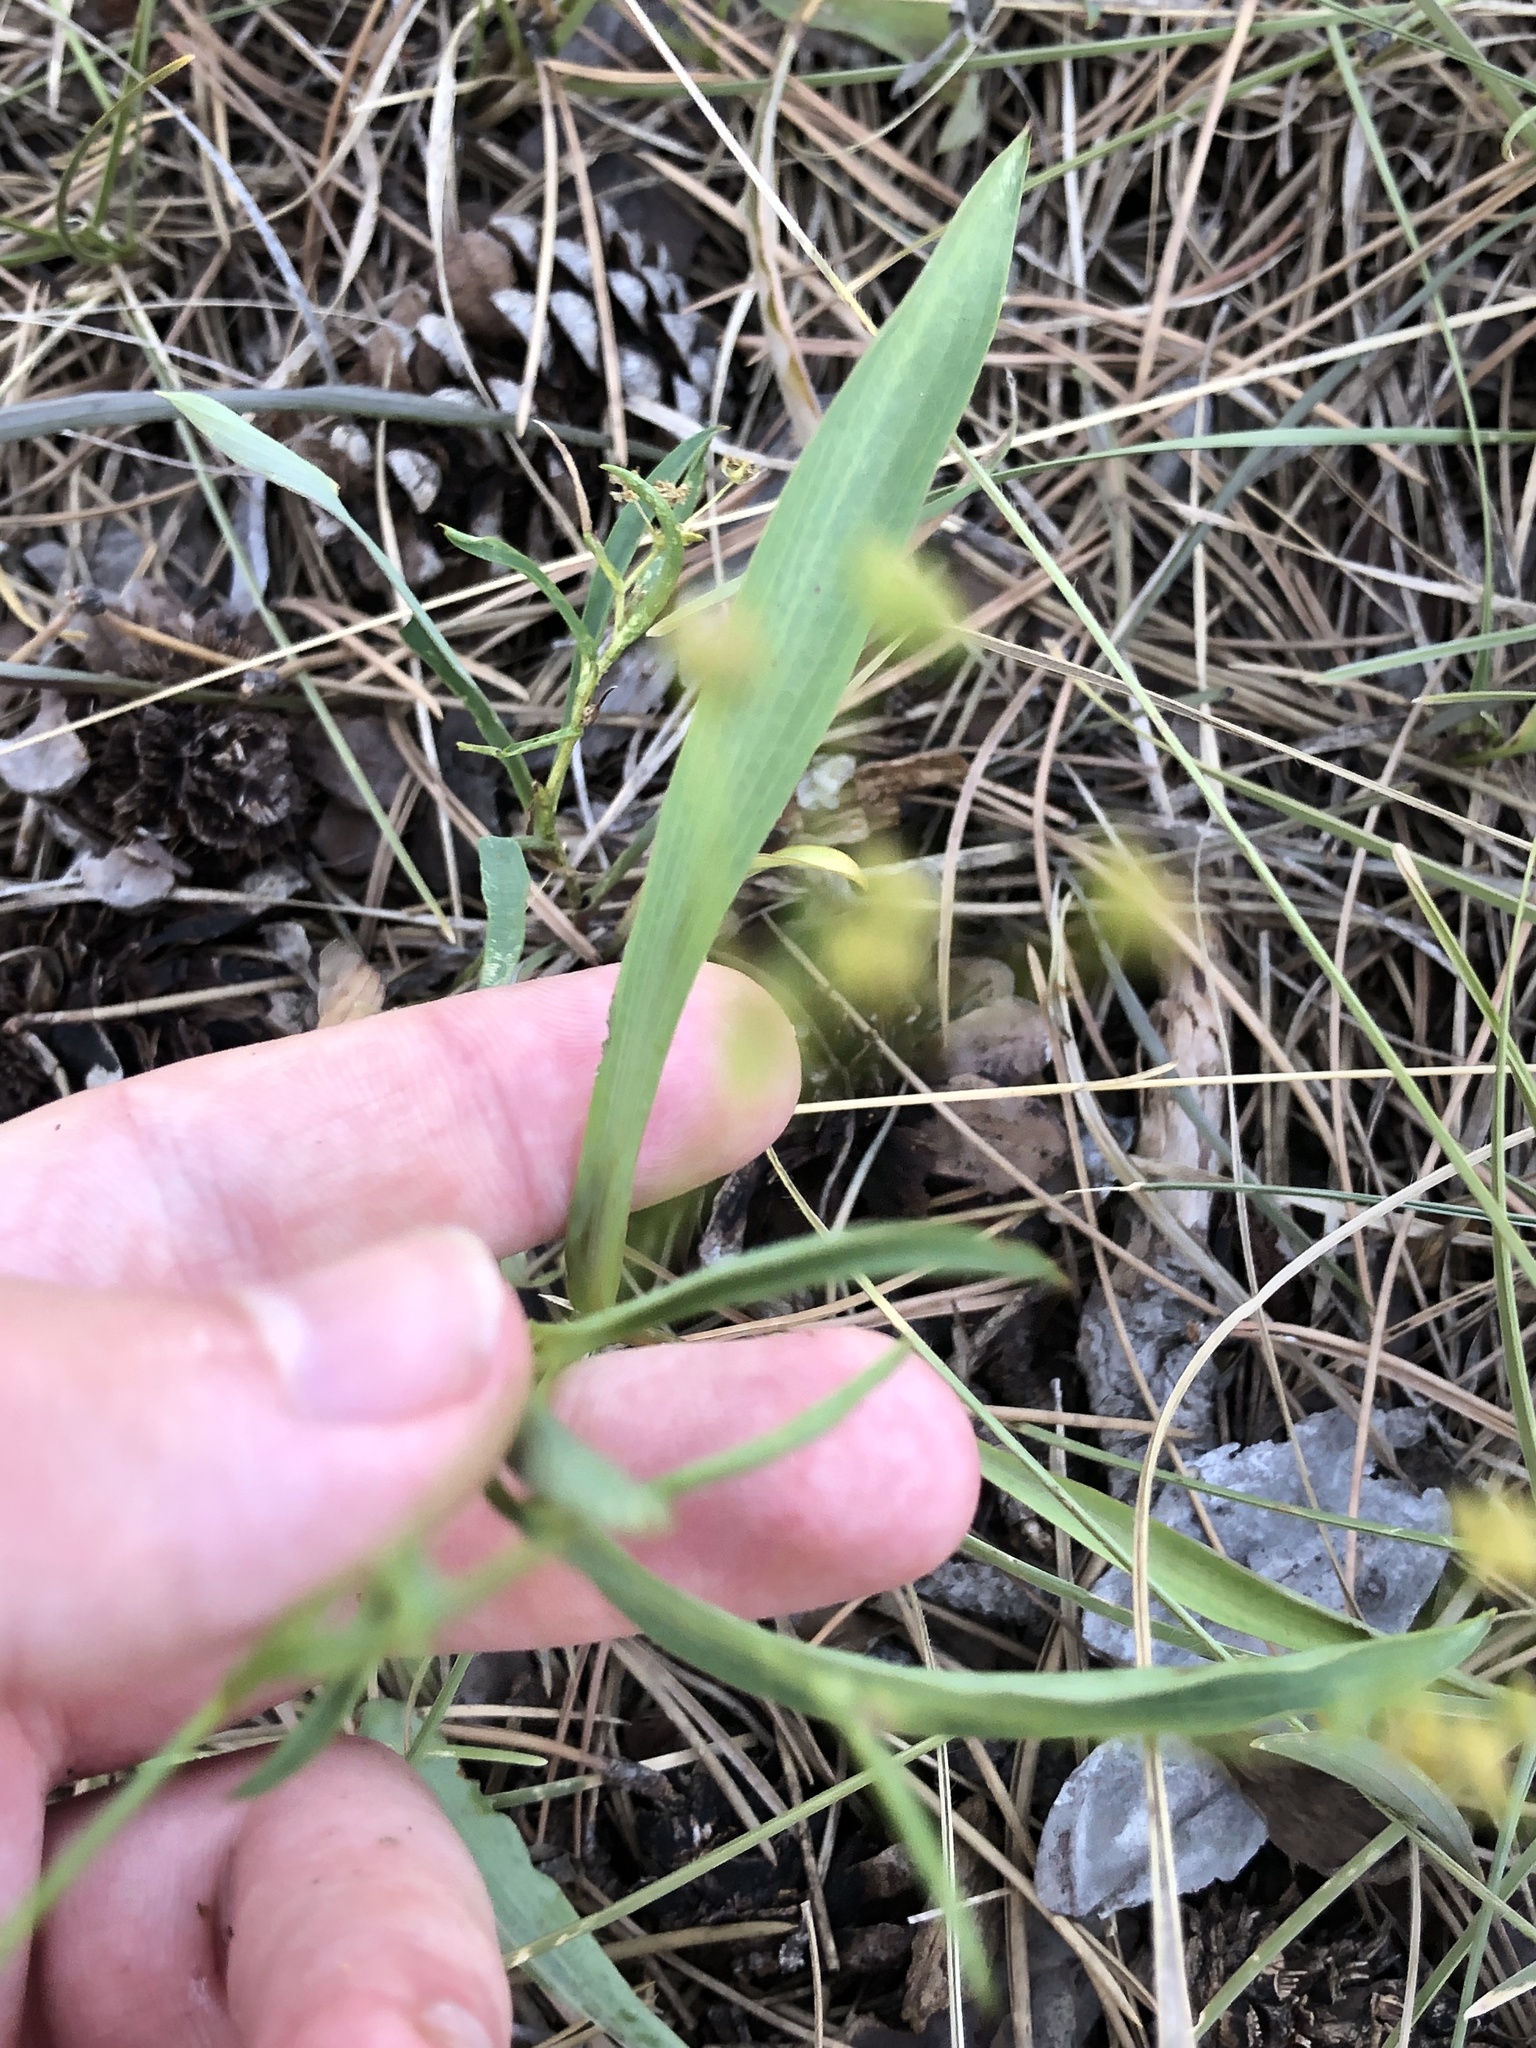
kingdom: Plantae
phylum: Tracheophyta
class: Magnoliopsida
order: Apiales
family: Apiaceae
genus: Bupleurum
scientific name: Bupleurum falcatum
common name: Sickle-leaved hare's-ear
